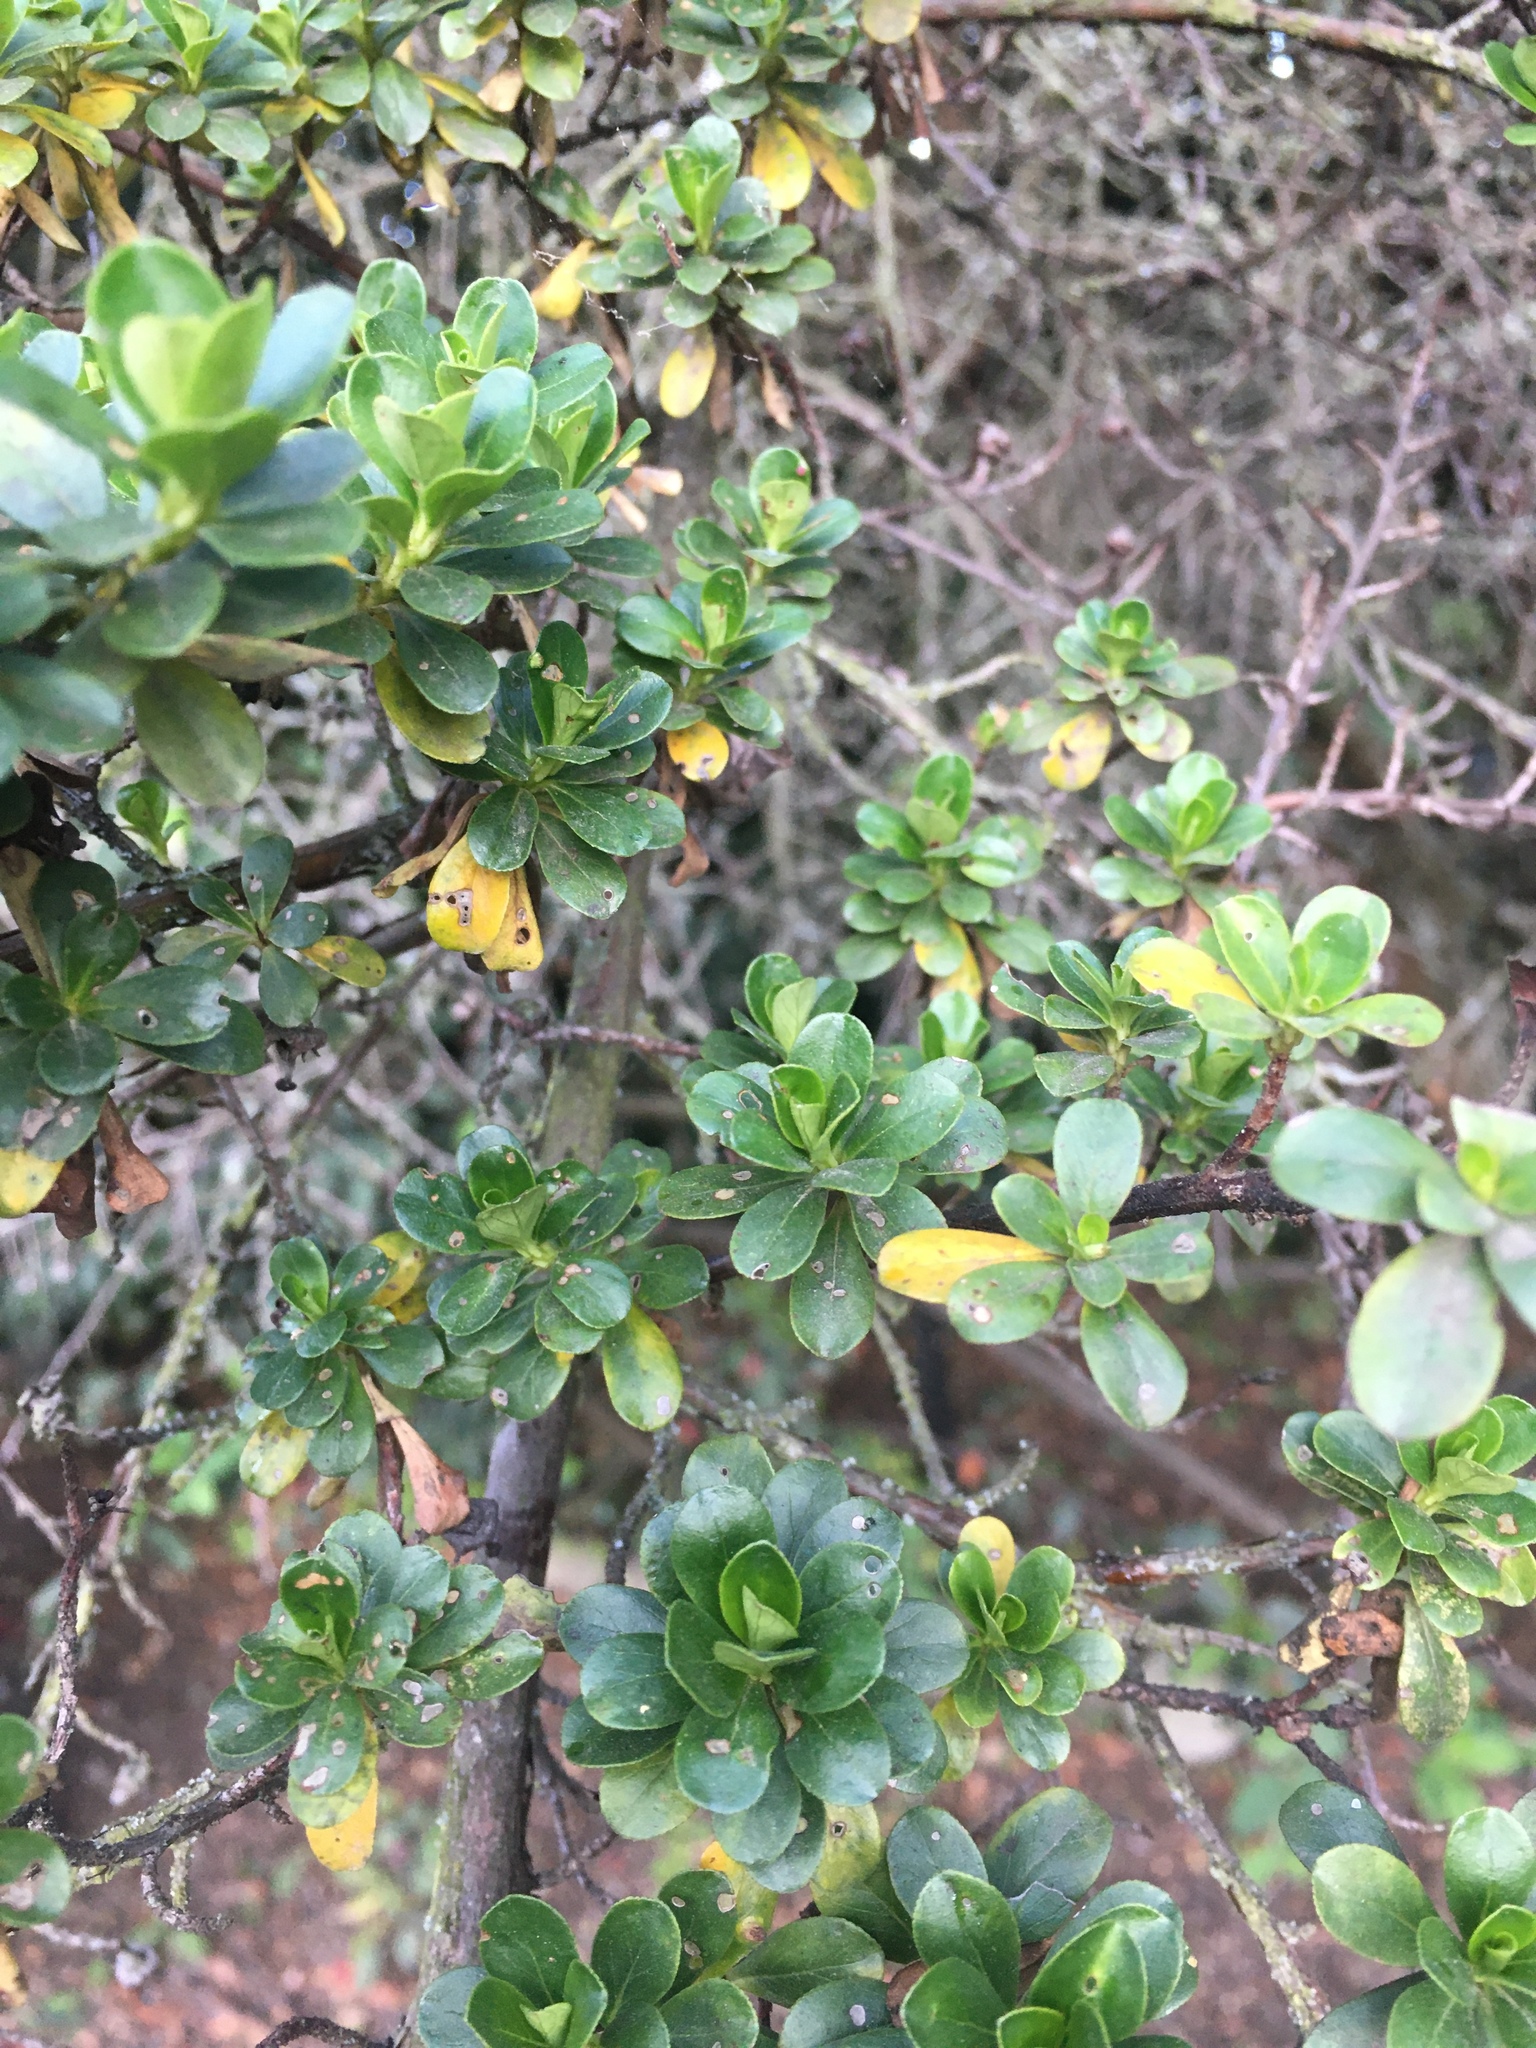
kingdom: Plantae
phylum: Tracheophyta
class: Magnoliopsida
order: Escalloniales
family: Escalloniaceae
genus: Escallonia
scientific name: Escallonia myrtilloides
